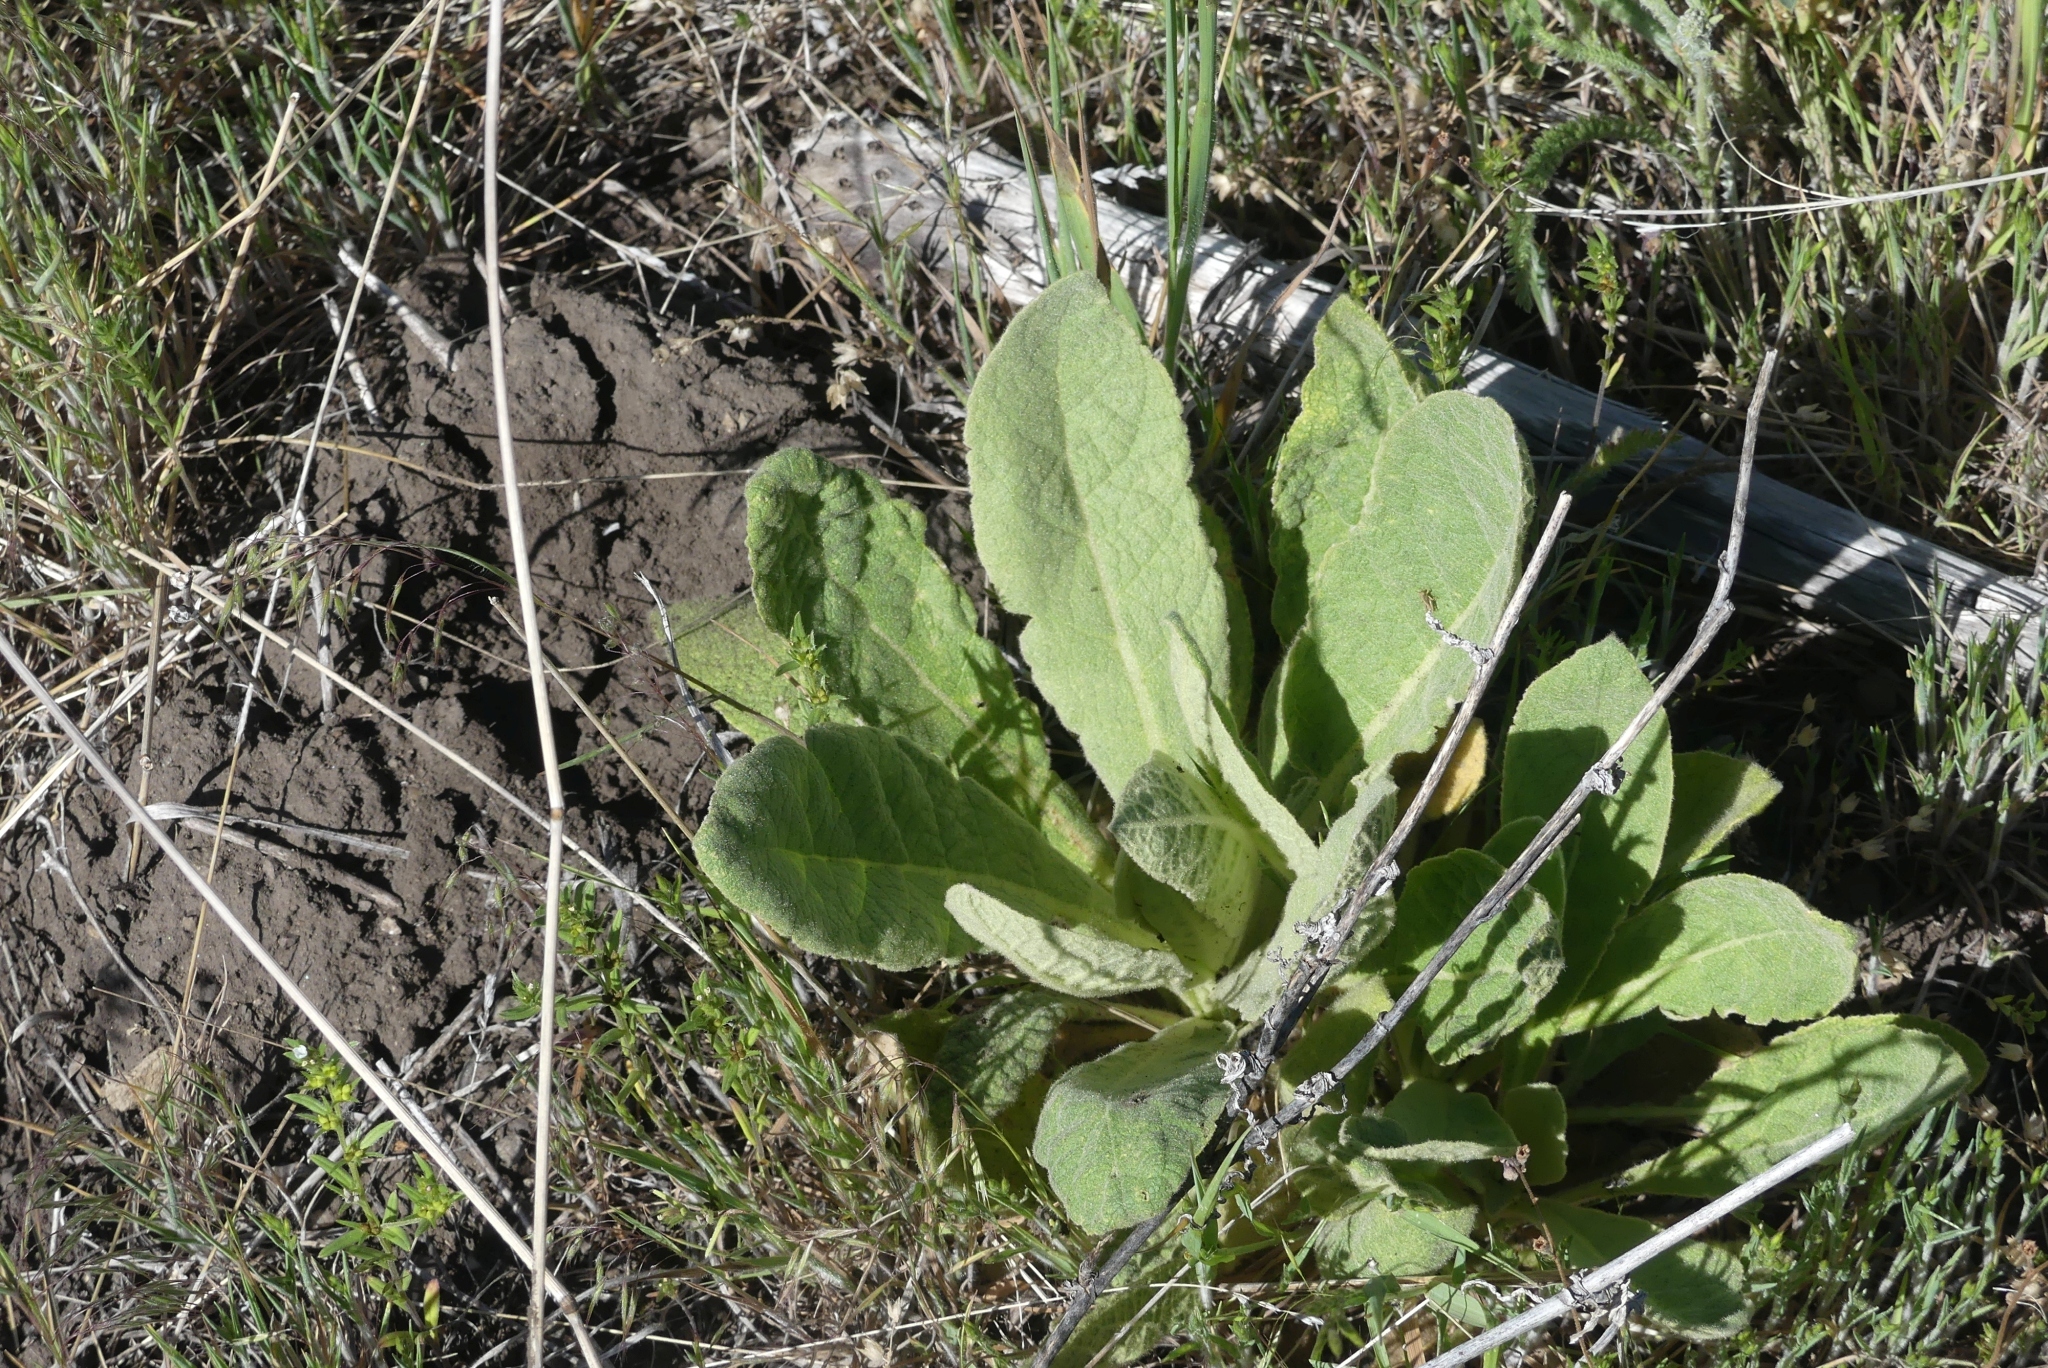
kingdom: Plantae
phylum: Tracheophyta
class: Magnoliopsida
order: Lamiales
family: Scrophulariaceae
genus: Verbascum
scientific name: Verbascum thapsus
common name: Common mullein
